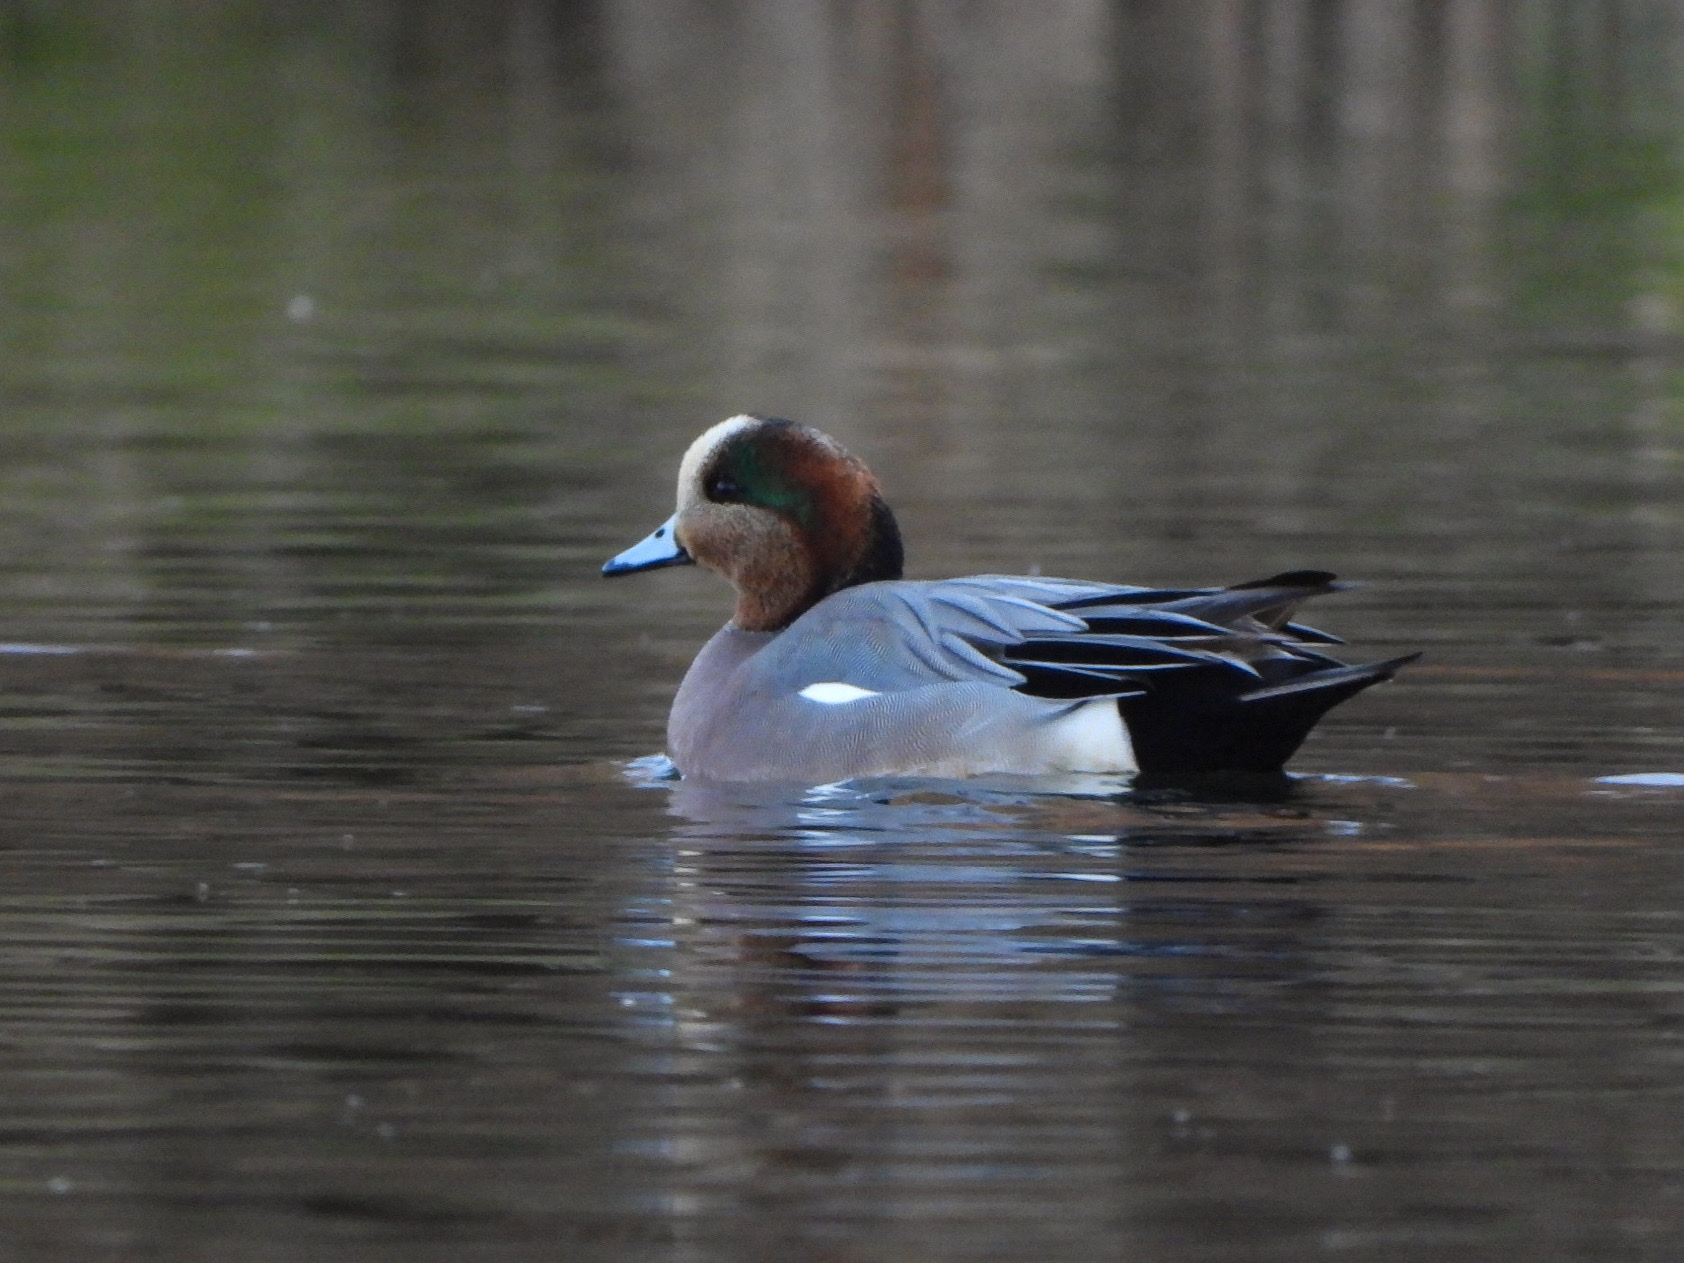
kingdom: Animalia
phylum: Chordata
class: Aves
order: Anseriformes
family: Anatidae
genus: Mareca
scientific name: Mareca
